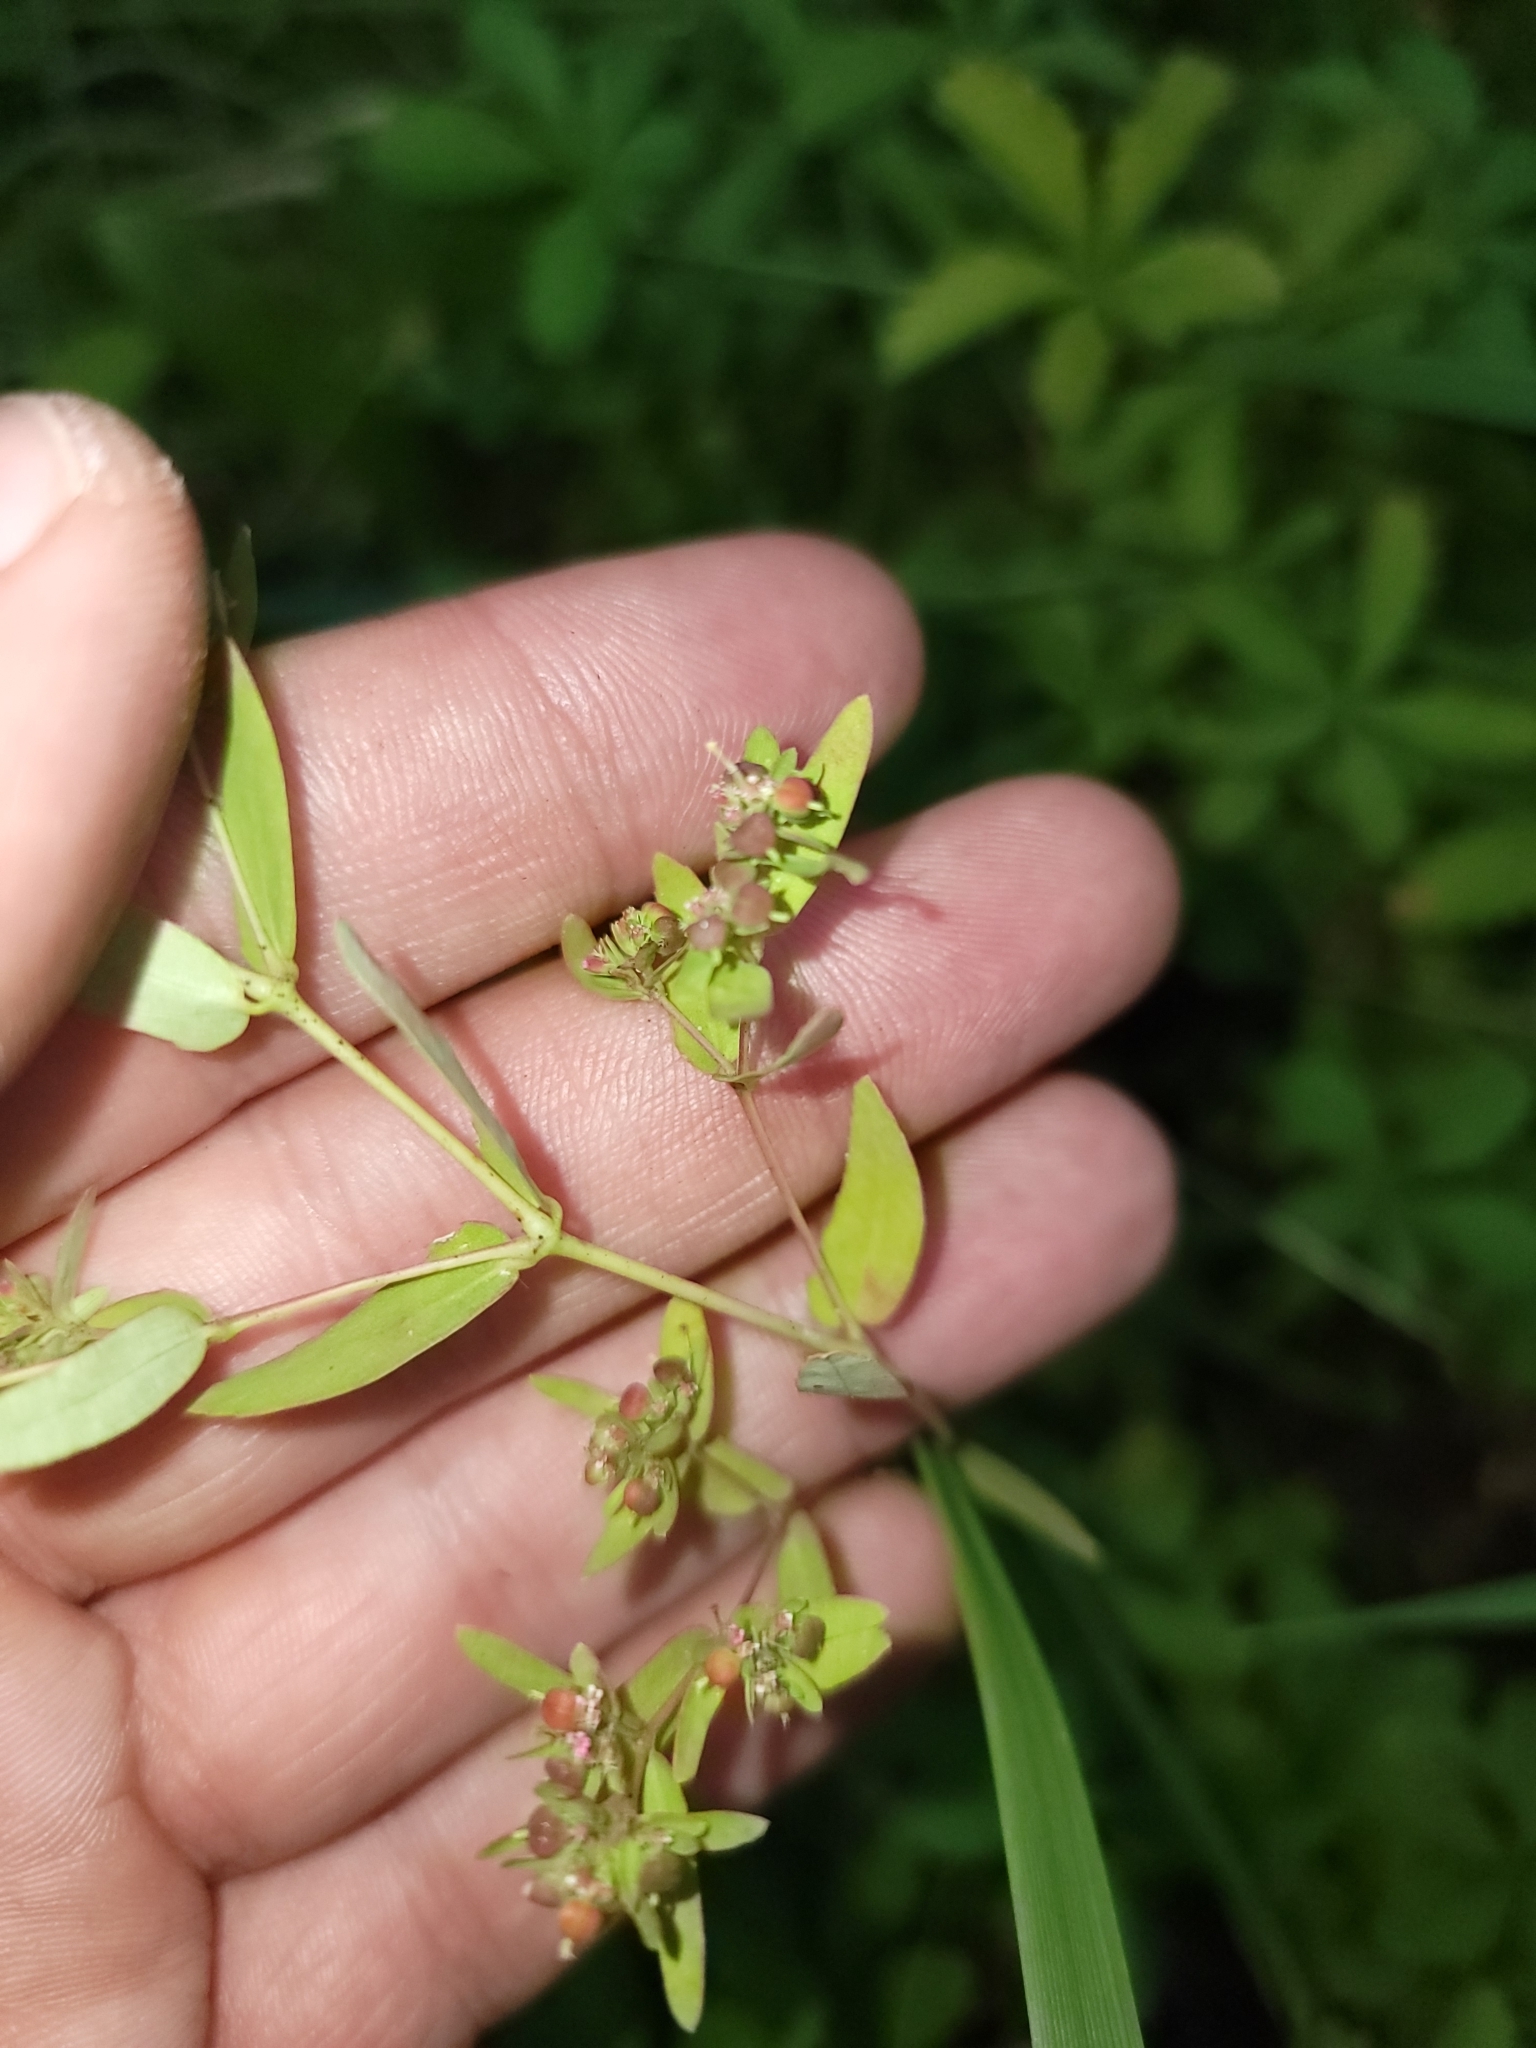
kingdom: Plantae
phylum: Tracheophyta
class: Magnoliopsida
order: Malpighiales
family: Euphorbiaceae
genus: Euphorbia
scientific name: Euphorbia nutans
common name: Eyebane
